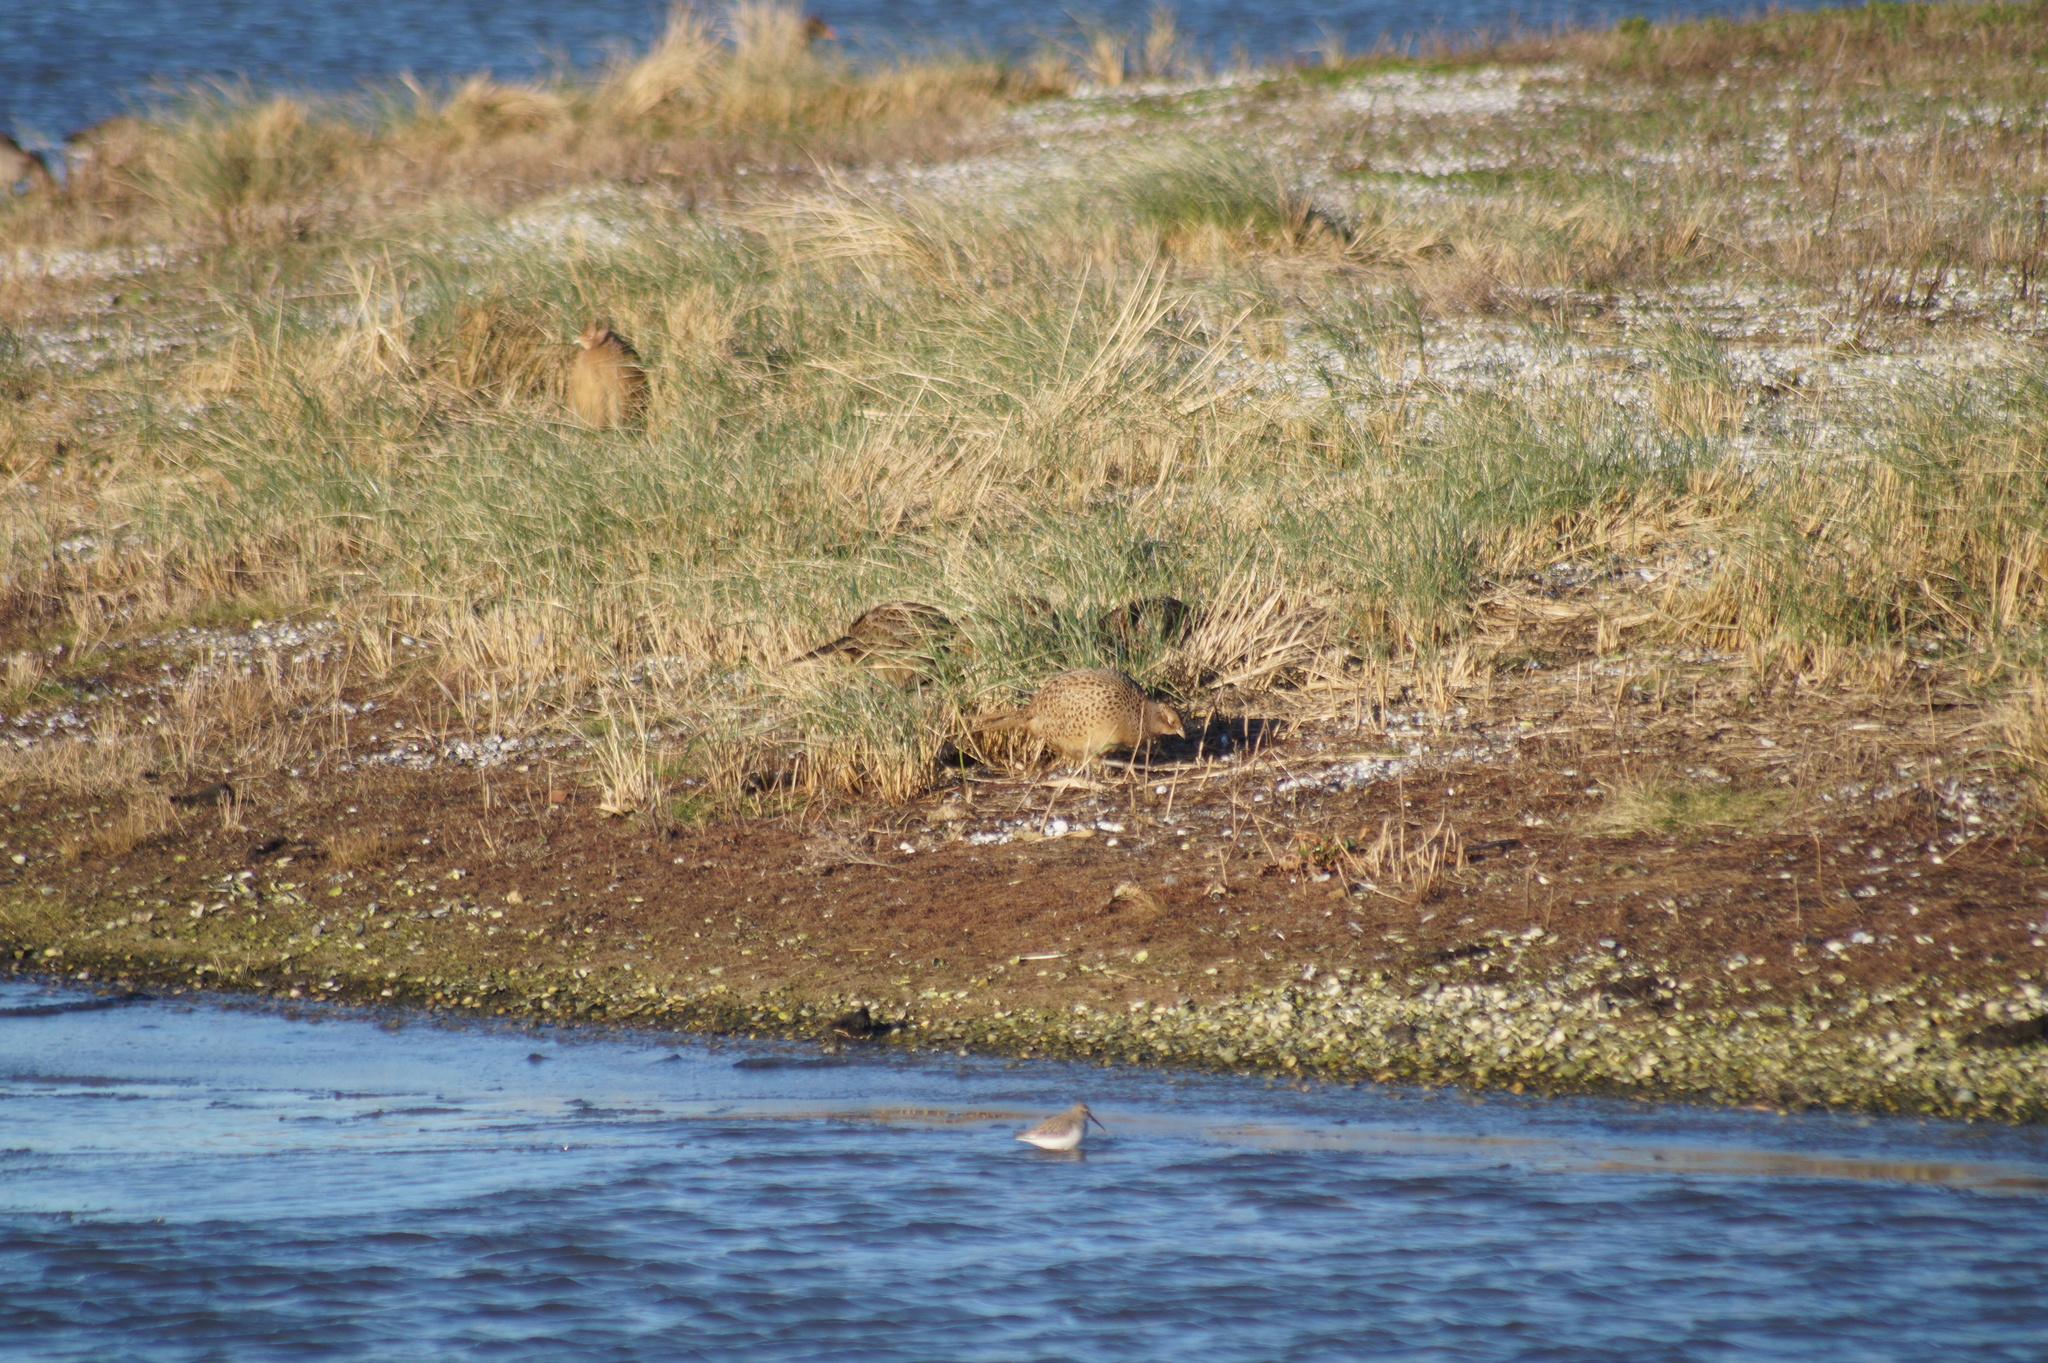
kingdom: Animalia
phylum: Chordata
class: Aves
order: Galliformes
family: Phasianidae
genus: Phasianus
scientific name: Phasianus colchicus
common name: Common pheasant
